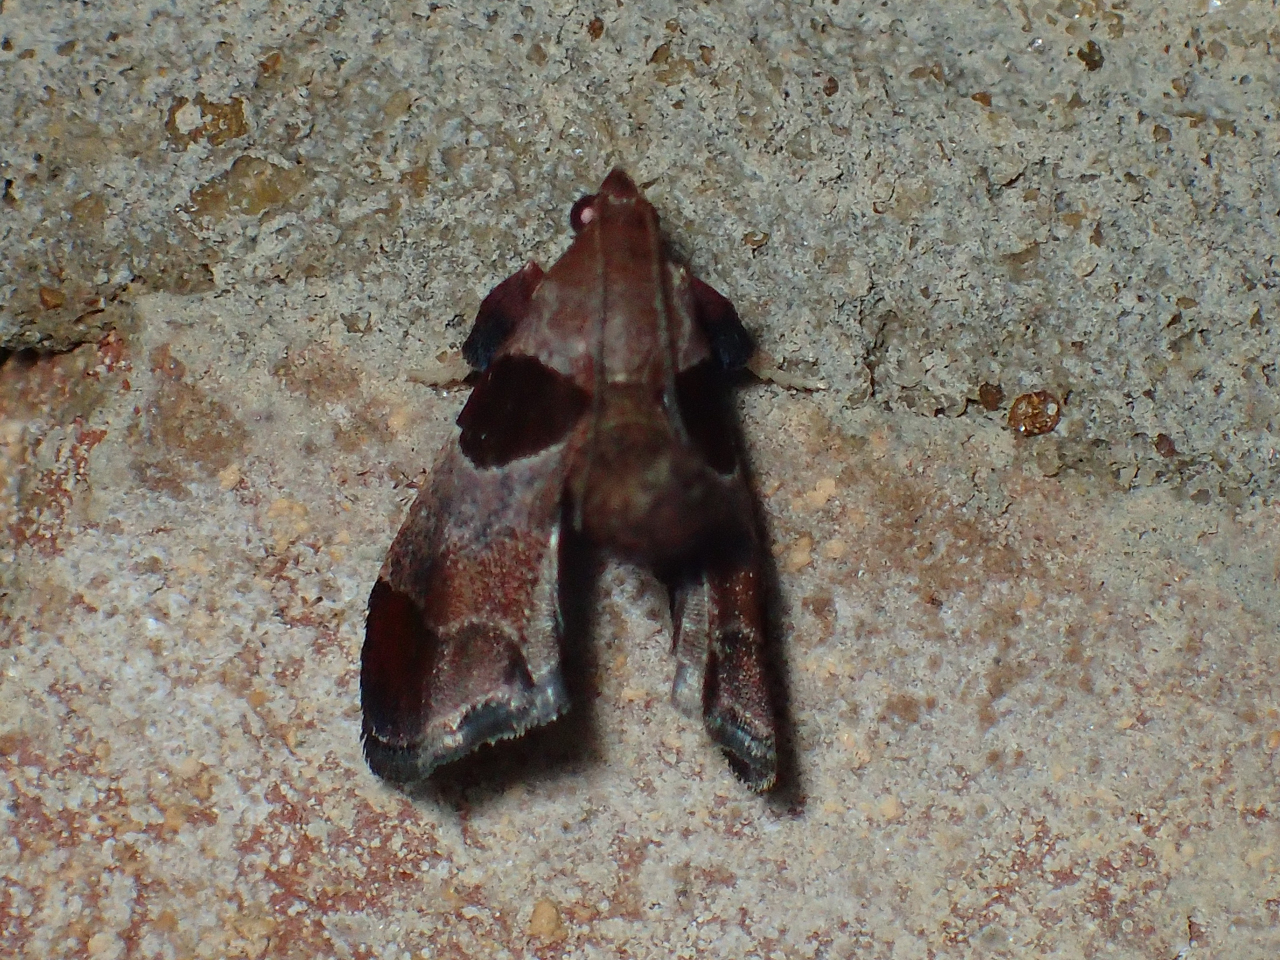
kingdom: Animalia
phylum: Arthropoda
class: Insecta
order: Lepidoptera
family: Pyralidae
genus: Tosale
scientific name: Tosale oviplagalis
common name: Dimorphic tosale moth
